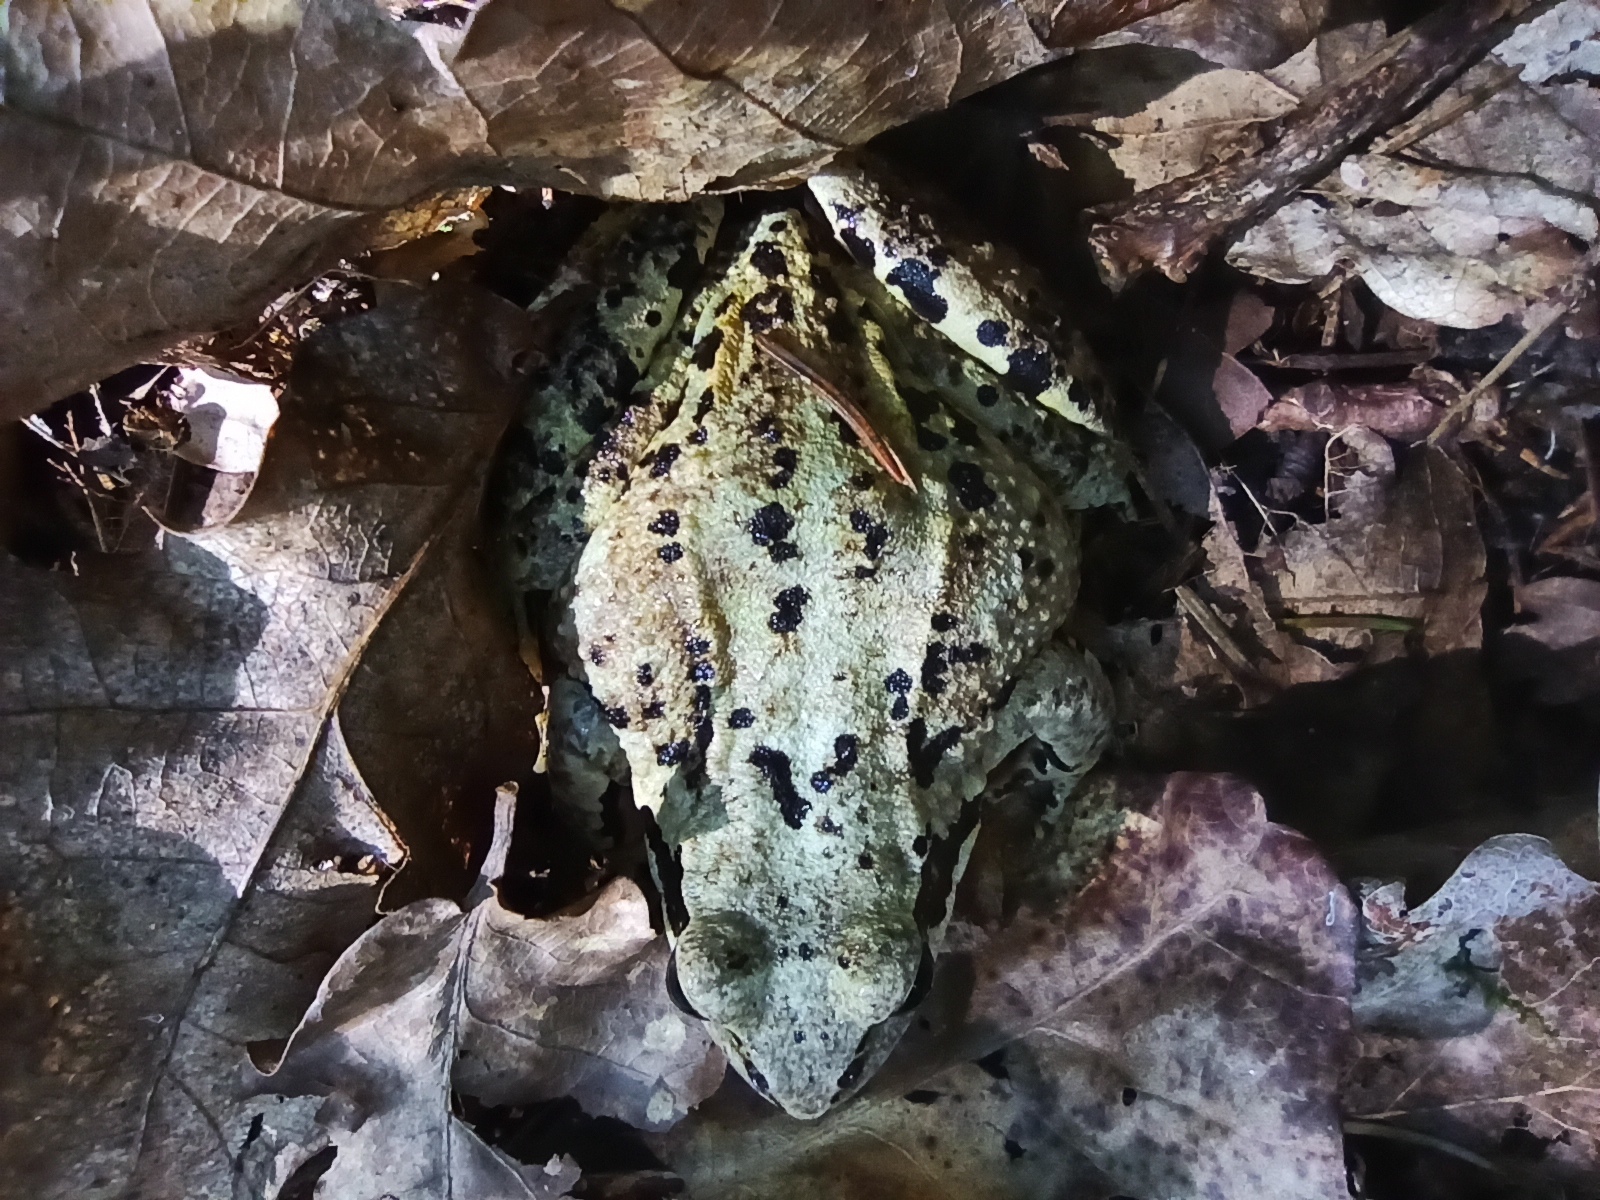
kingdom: Animalia
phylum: Chordata
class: Amphibia
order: Anura
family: Ranidae
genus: Rana
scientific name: Rana temporaria
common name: Common frog
